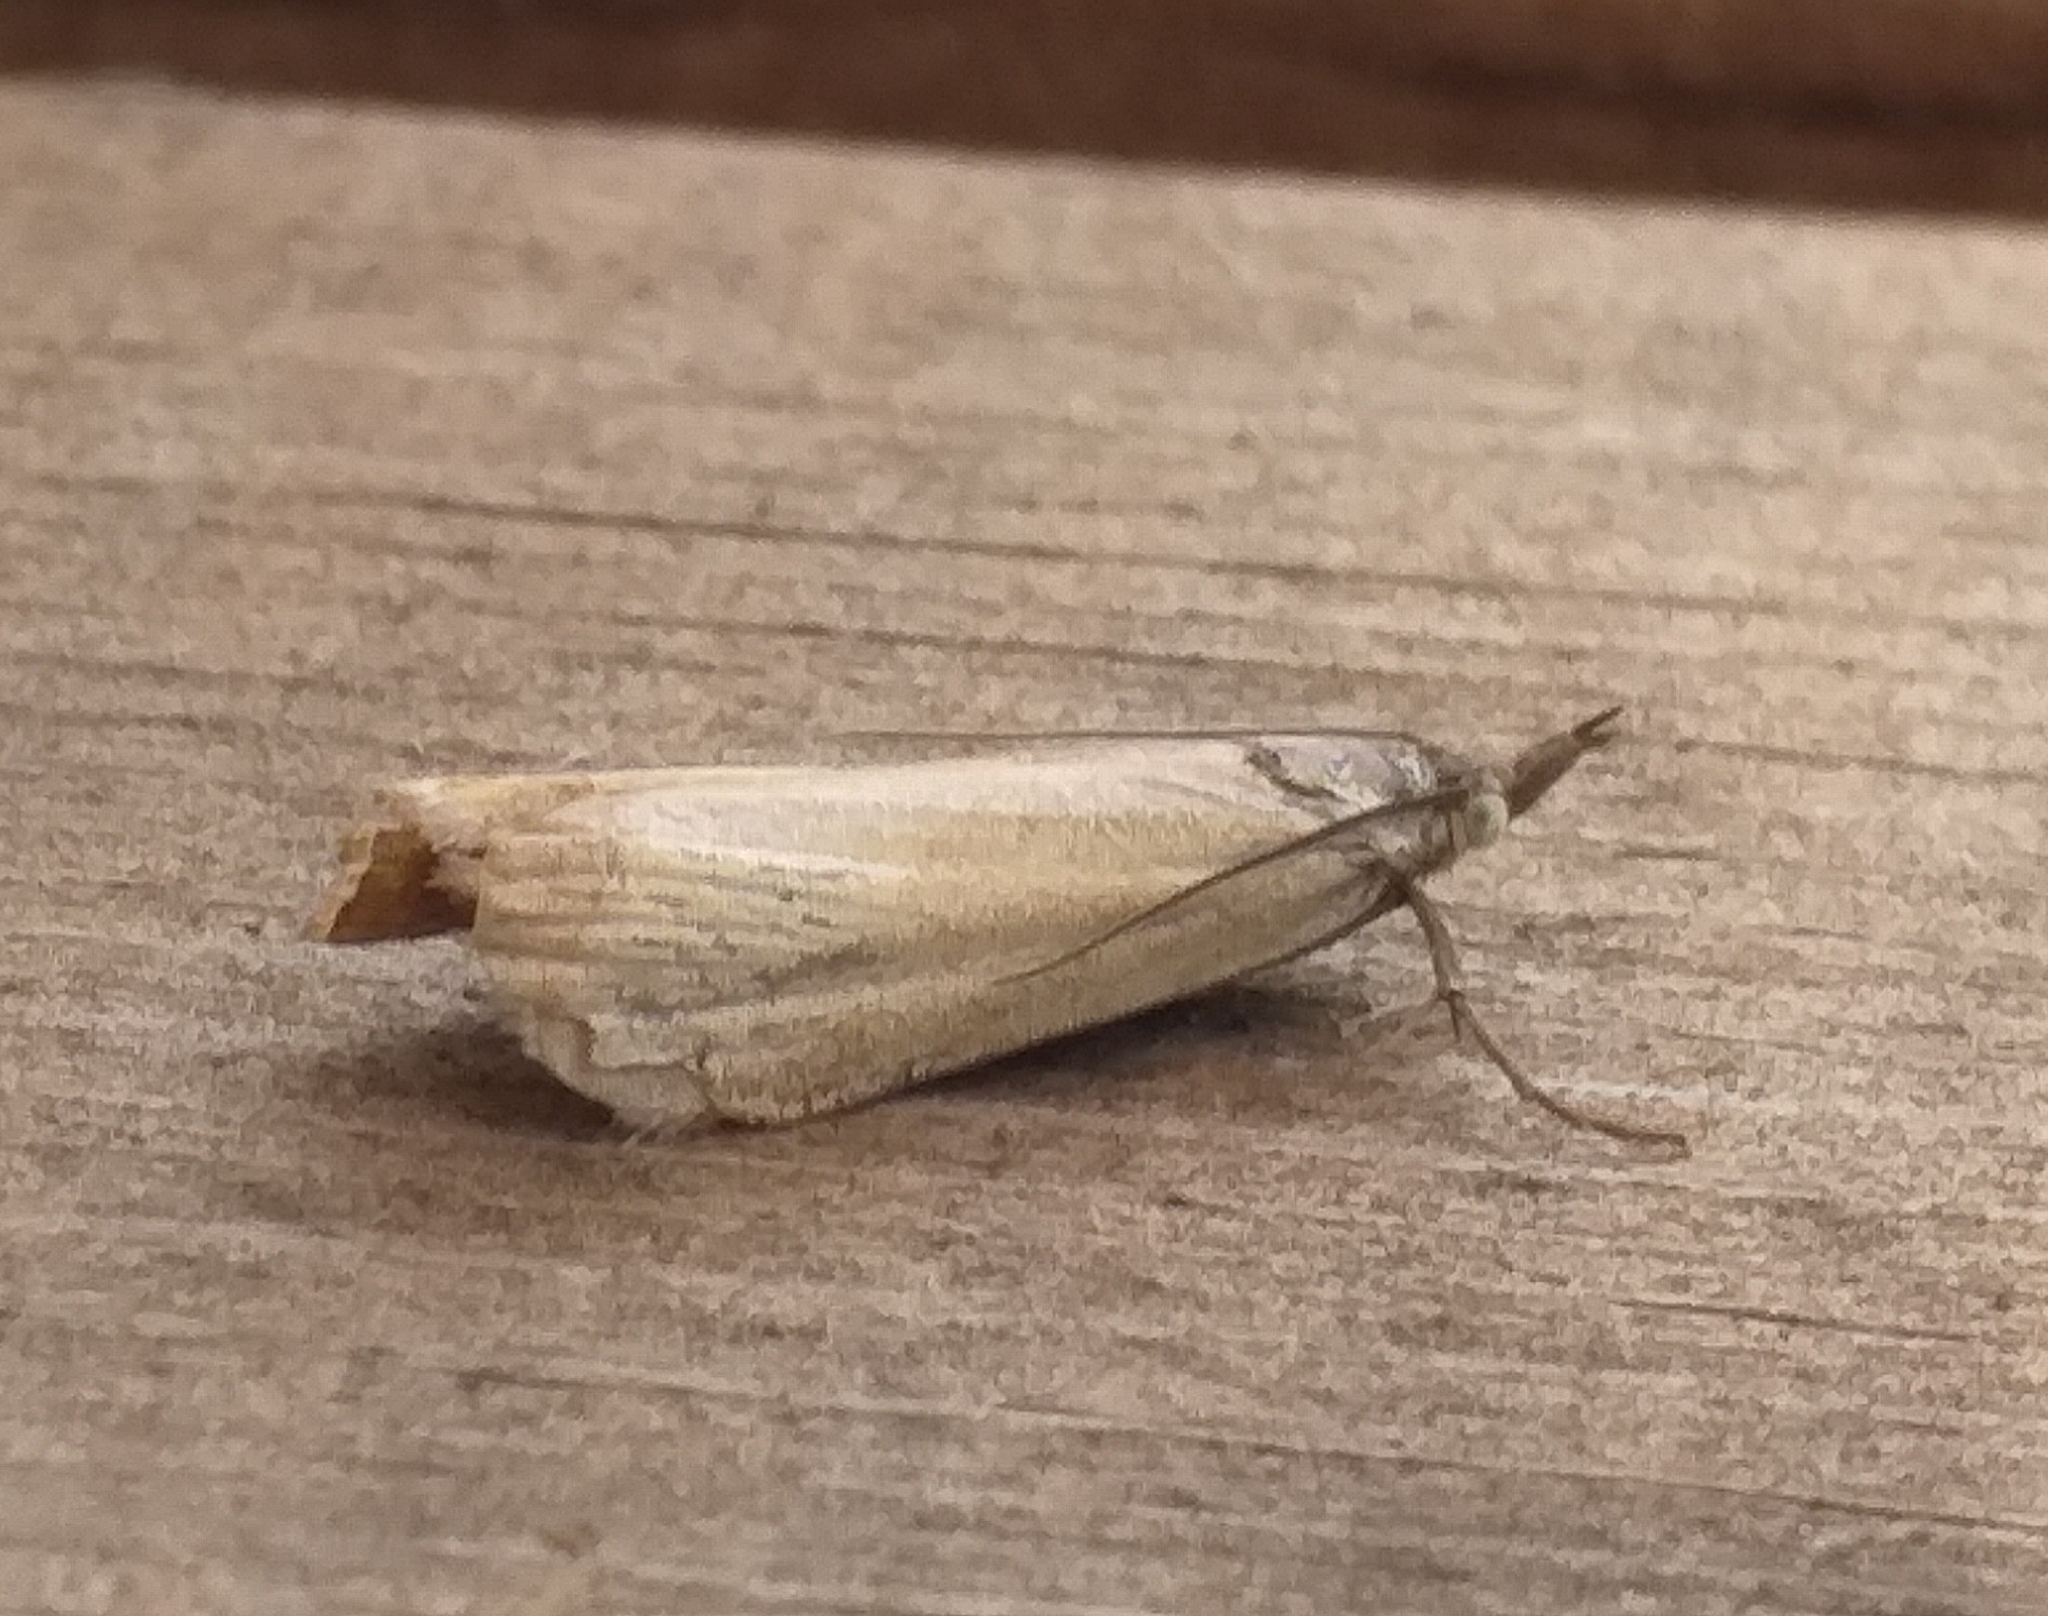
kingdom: Animalia
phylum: Arthropoda
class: Insecta
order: Lepidoptera
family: Crambidae
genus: Chrysoteuchia
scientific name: Chrysoteuchia culmella
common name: Garden grass-veneer
